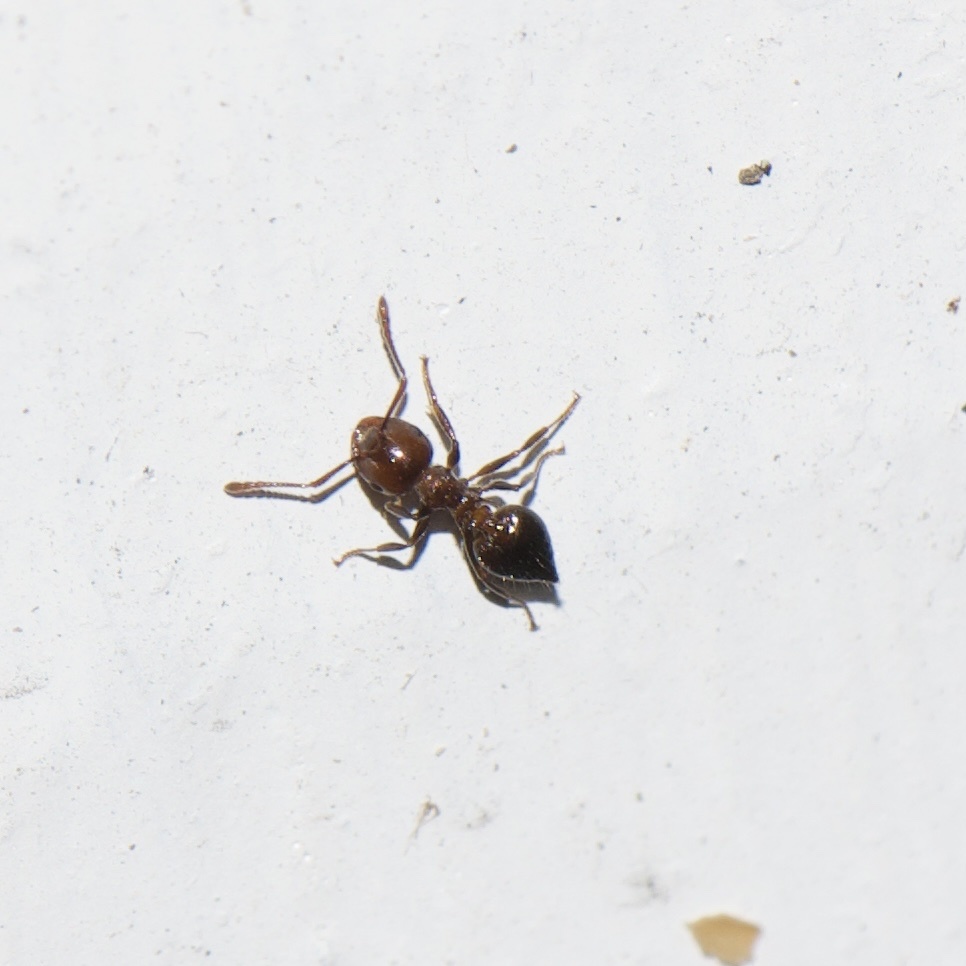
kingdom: Animalia
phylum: Arthropoda
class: Insecta
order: Hymenoptera
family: Formicidae
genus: Crematogaster
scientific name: Crematogaster laeviuscula
